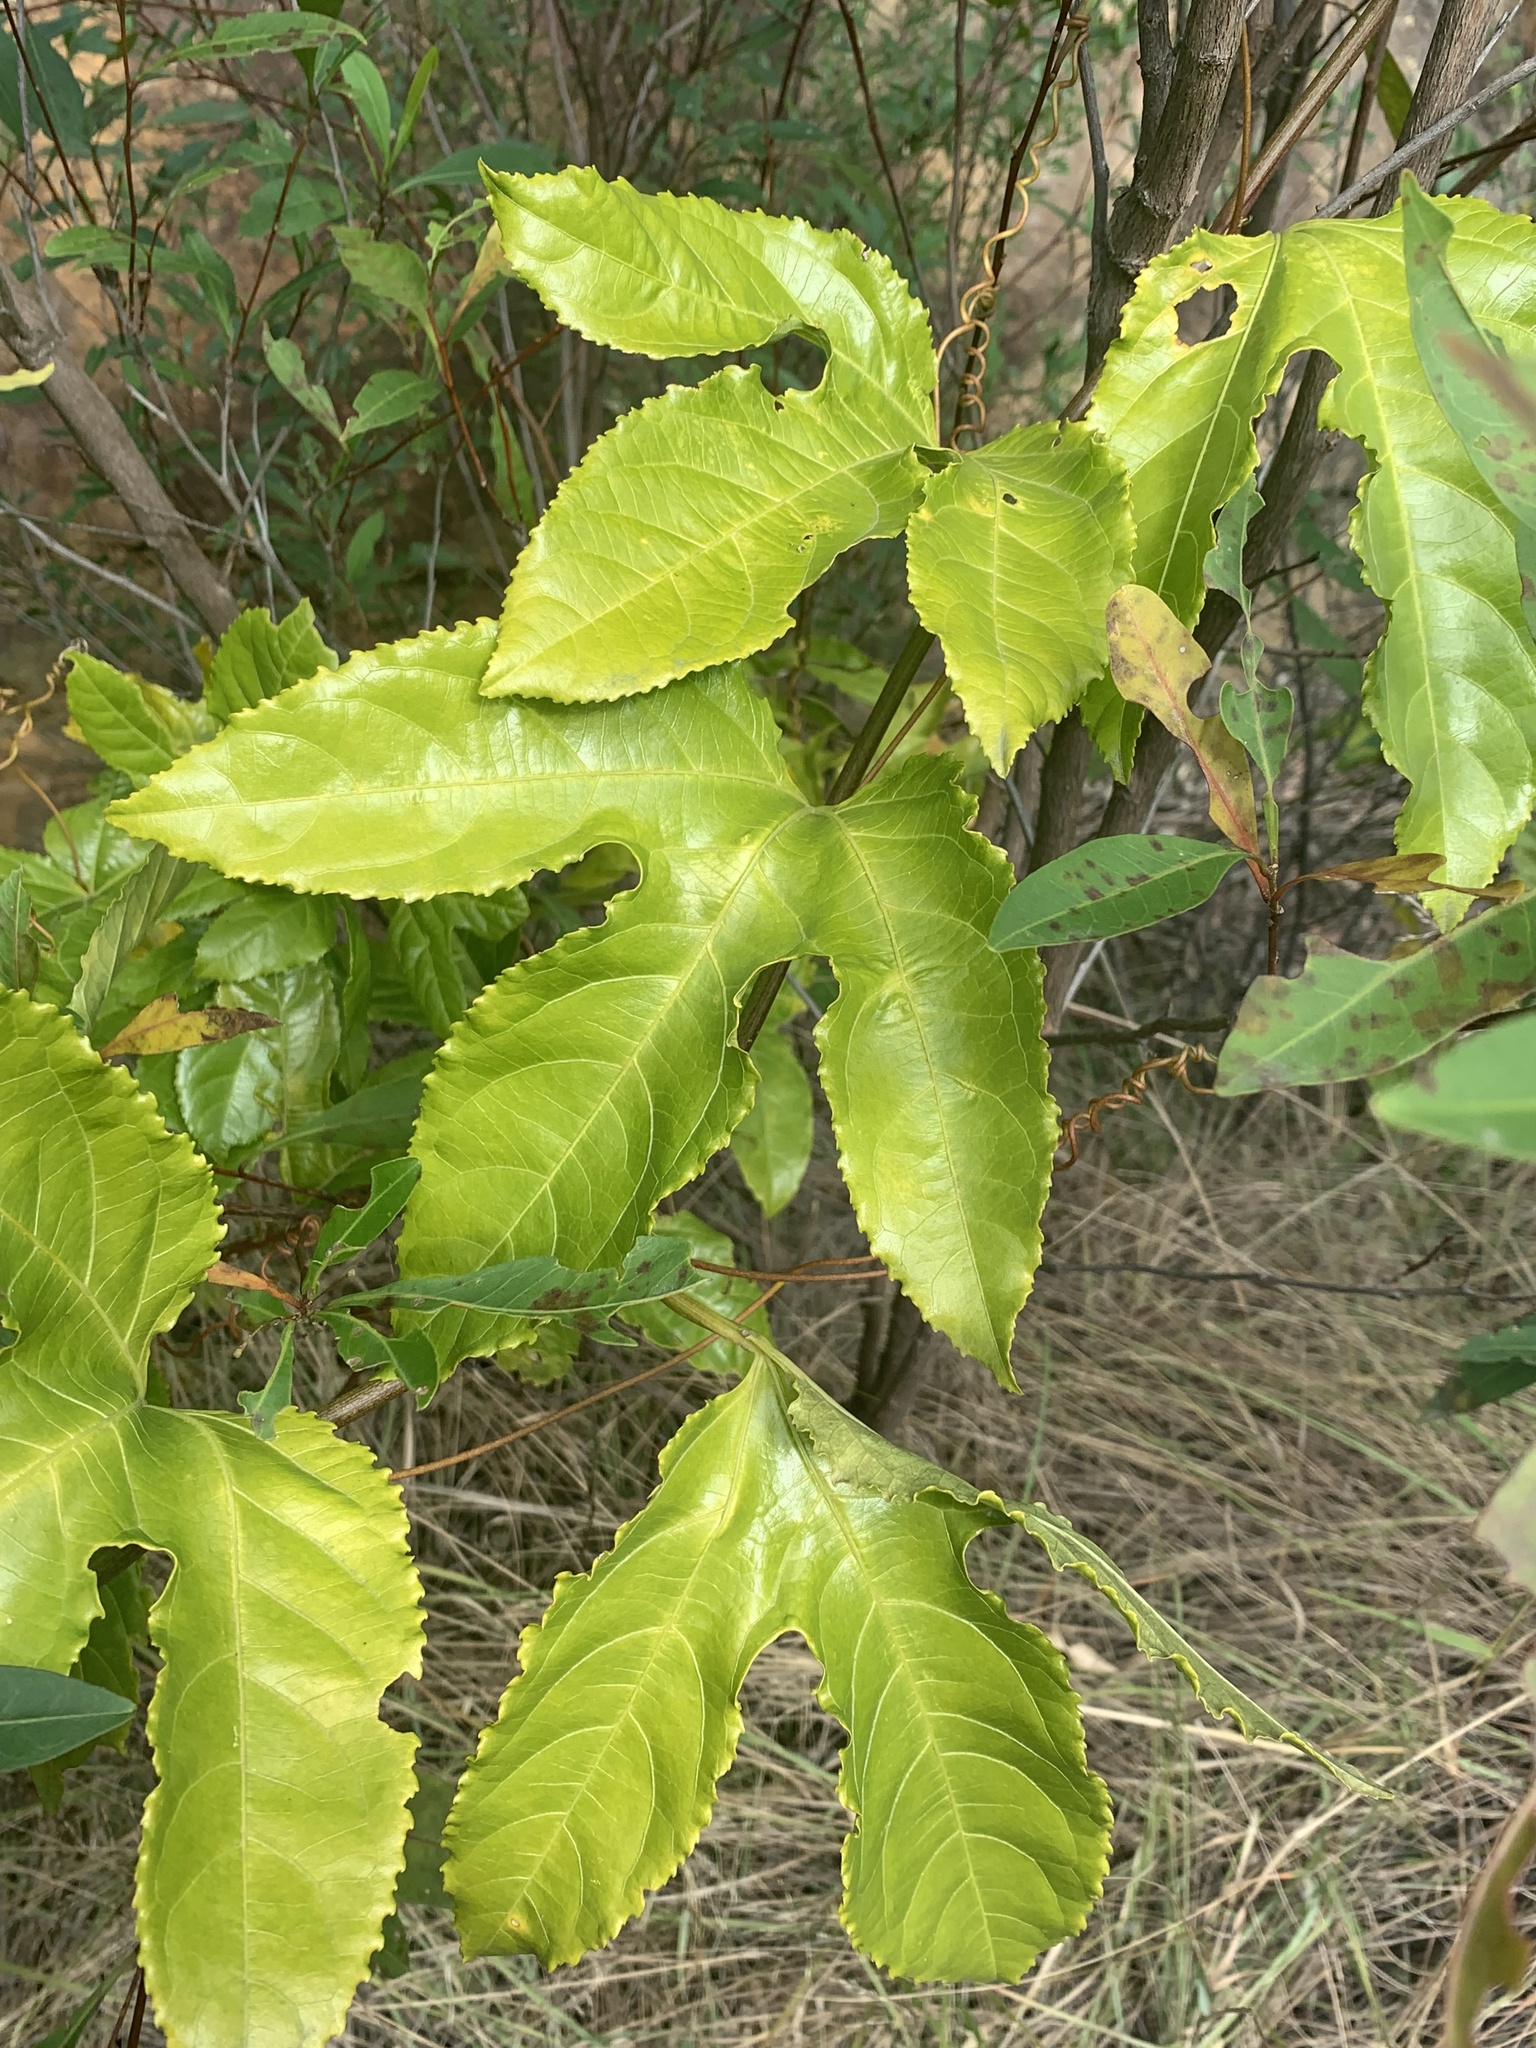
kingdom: Plantae
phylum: Tracheophyta
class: Magnoliopsida
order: Malpighiales
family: Passifloraceae
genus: Passiflora
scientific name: Passiflora edulis
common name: Purple granadilla
